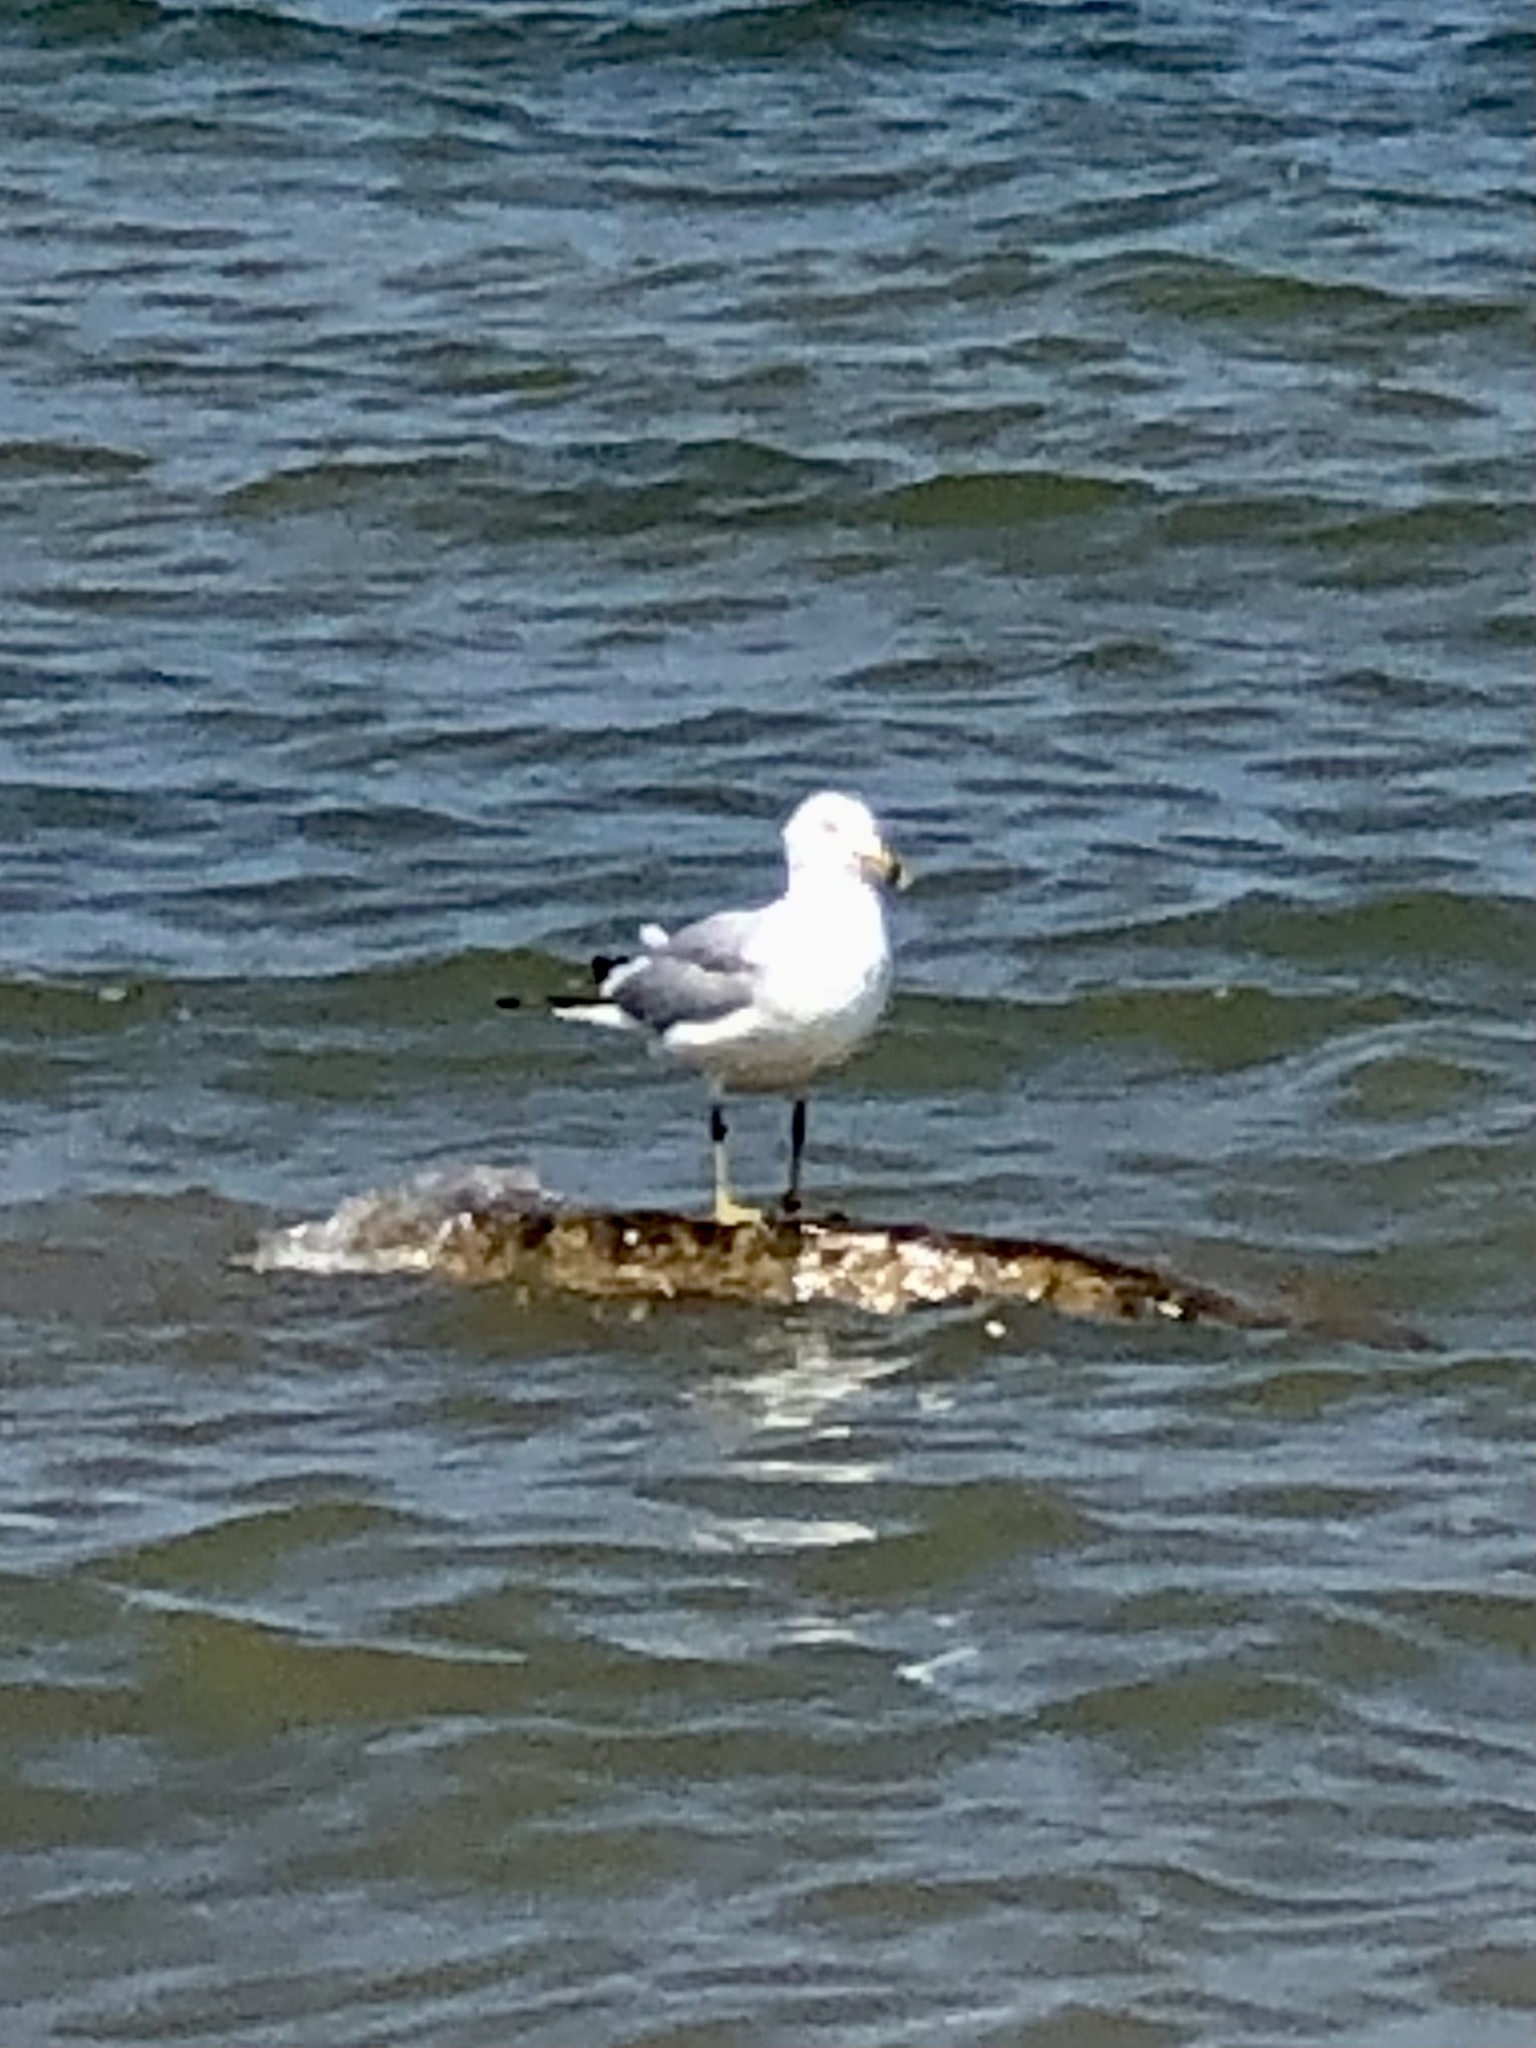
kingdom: Animalia
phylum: Chordata
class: Aves
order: Charadriiformes
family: Laridae
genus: Larus
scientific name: Larus delawarensis
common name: Ring-billed gull
